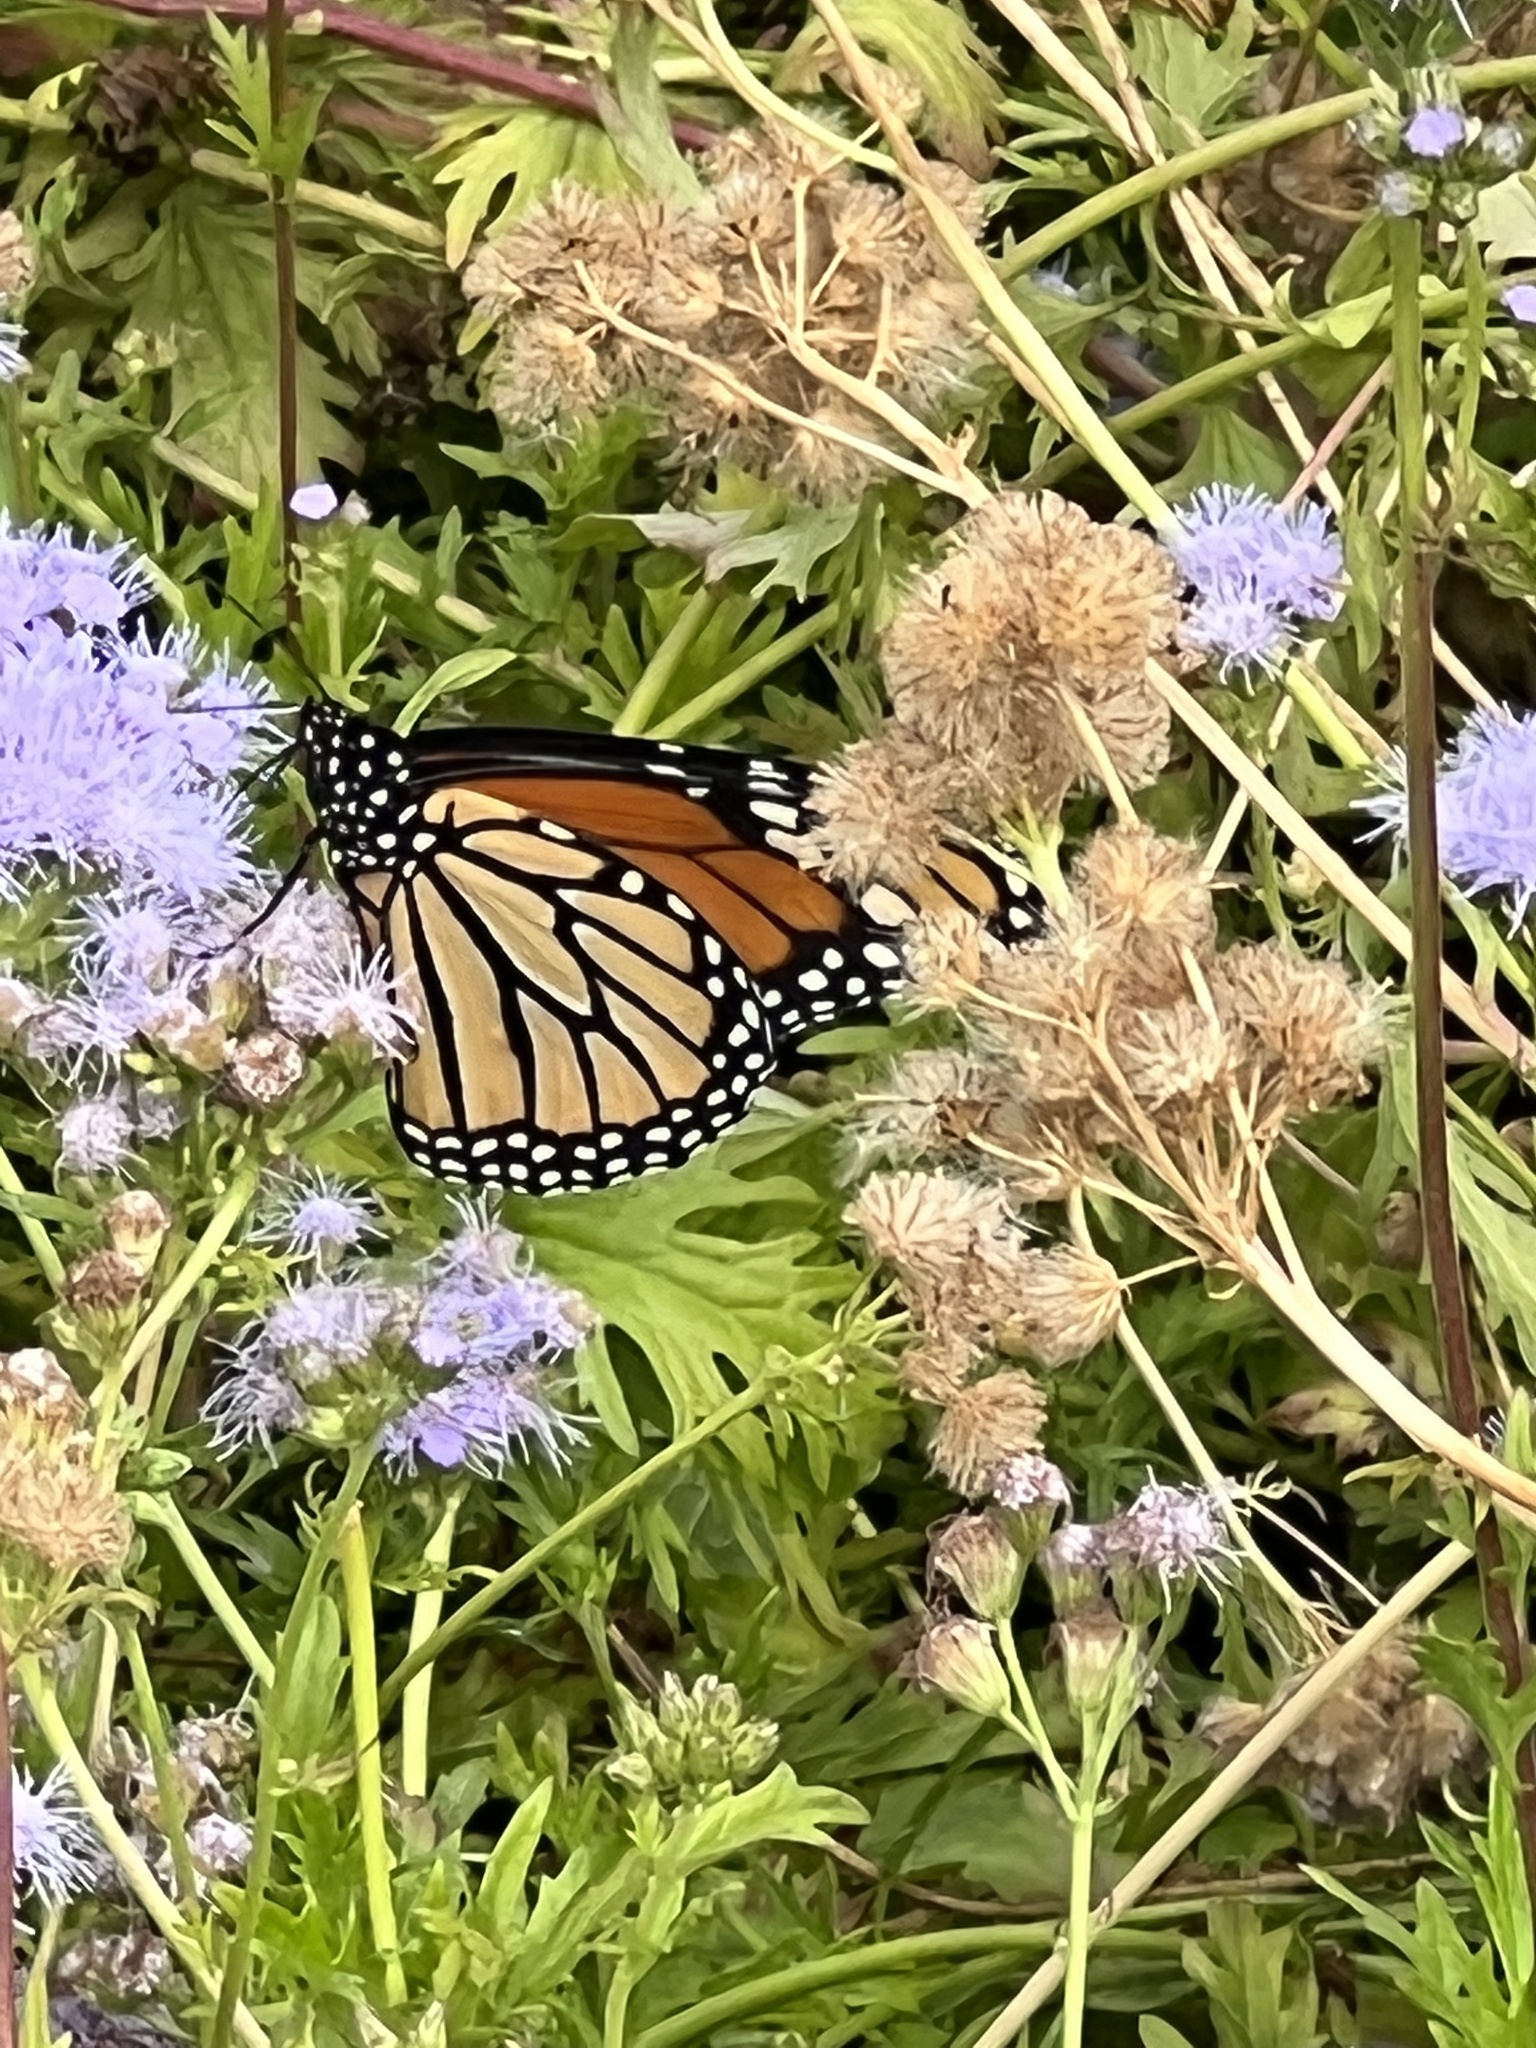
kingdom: Animalia
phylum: Arthropoda
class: Insecta
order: Lepidoptera
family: Nymphalidae
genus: Danaus
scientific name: Danaus plexippus
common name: Monarch
